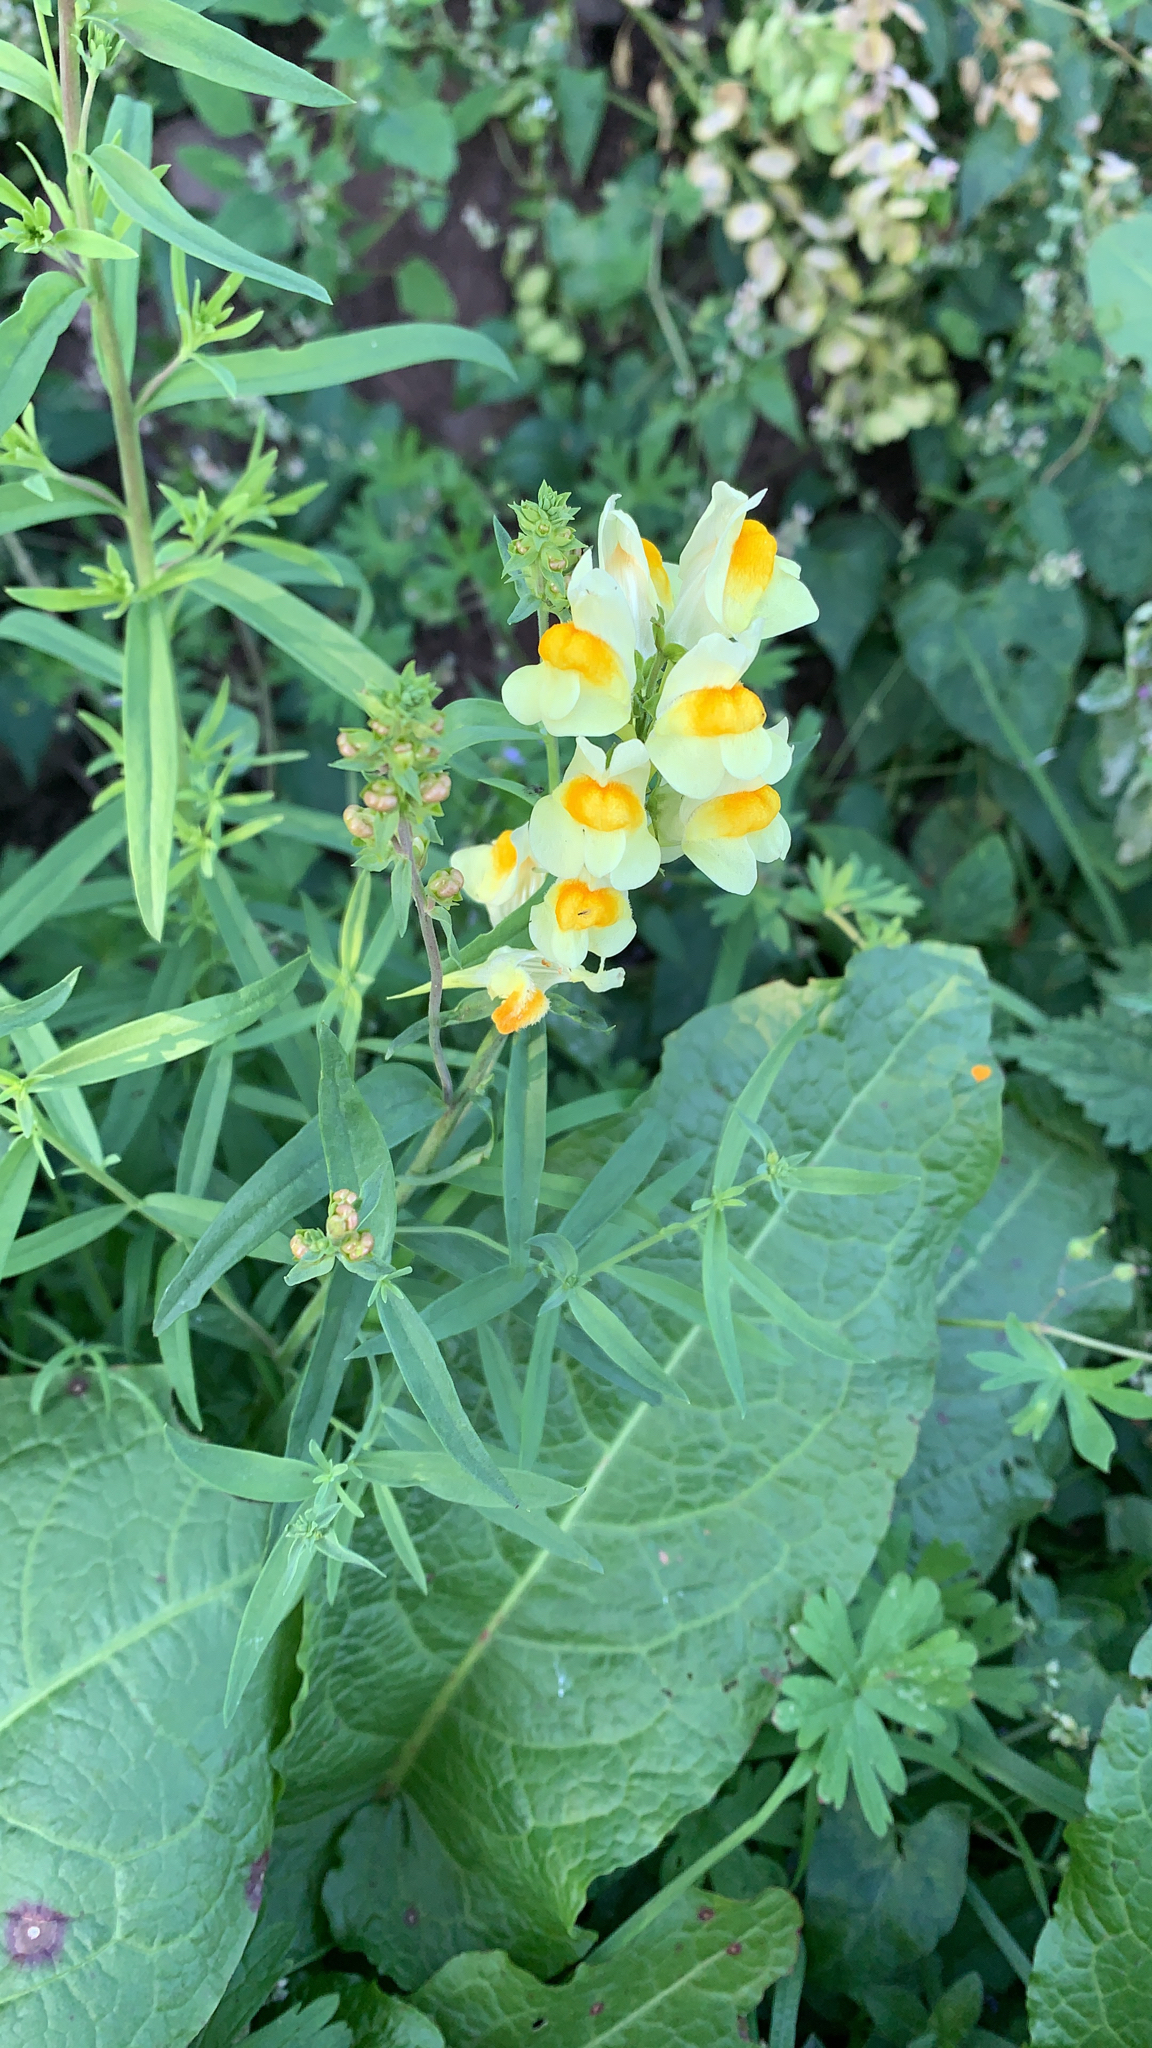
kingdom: Plantae
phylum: Tracheophyta
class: Magnoliopsida
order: Lamiales
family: Plantaginaceae
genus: Linaria
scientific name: Linaria vulgaris
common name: Butter and eggs
